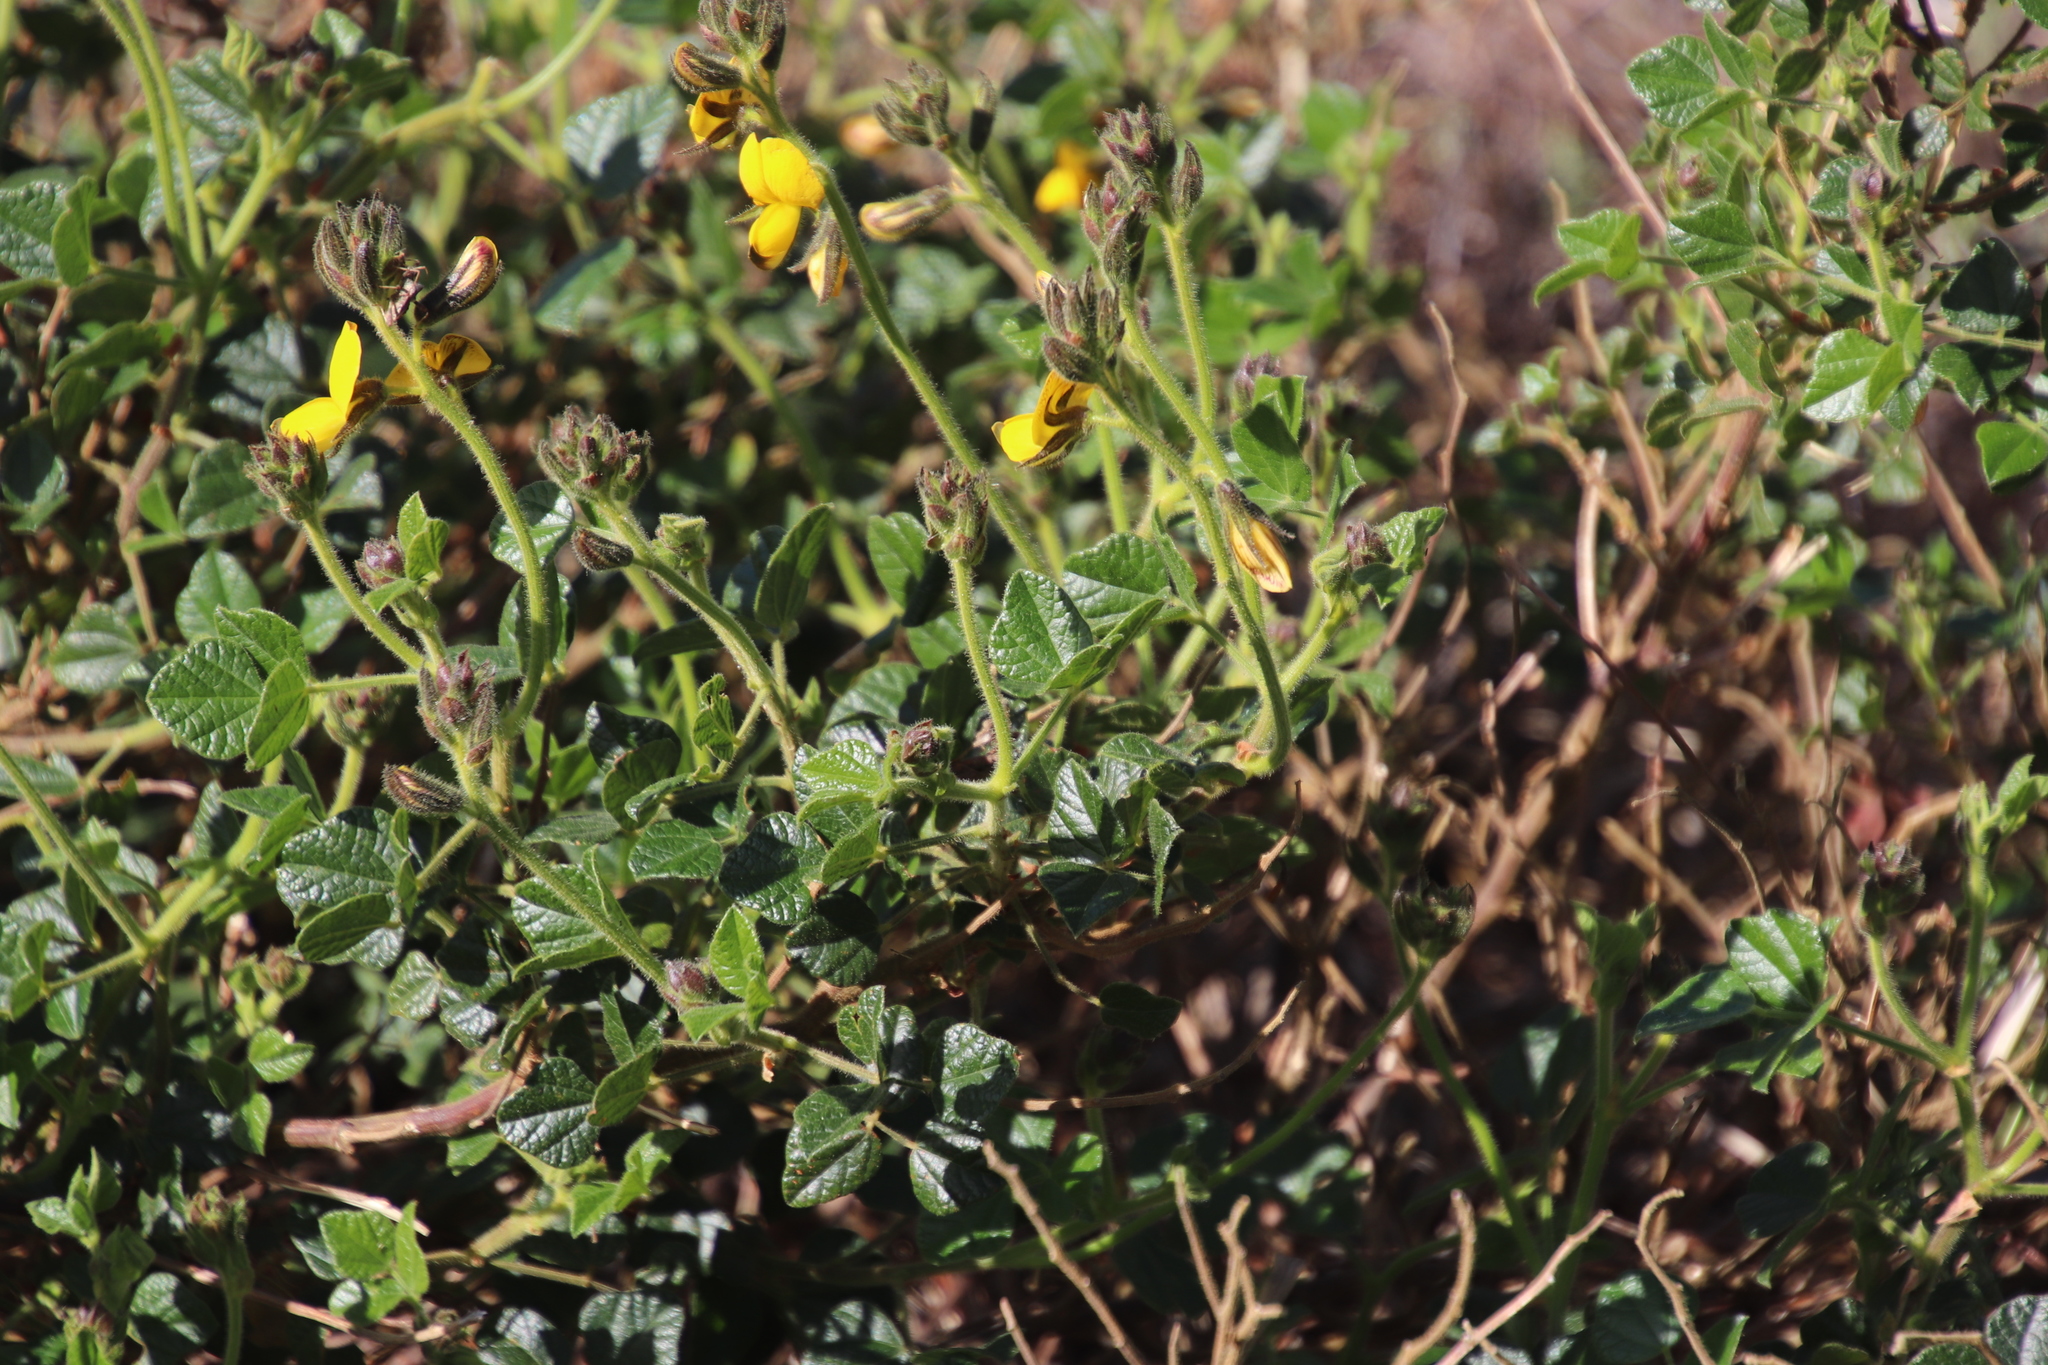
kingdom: Plantae
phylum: Tracheophyta
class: Magnoliopsida
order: Fabales
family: Fabaceae
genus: Bolusafra
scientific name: Bolusafra bituminosa
